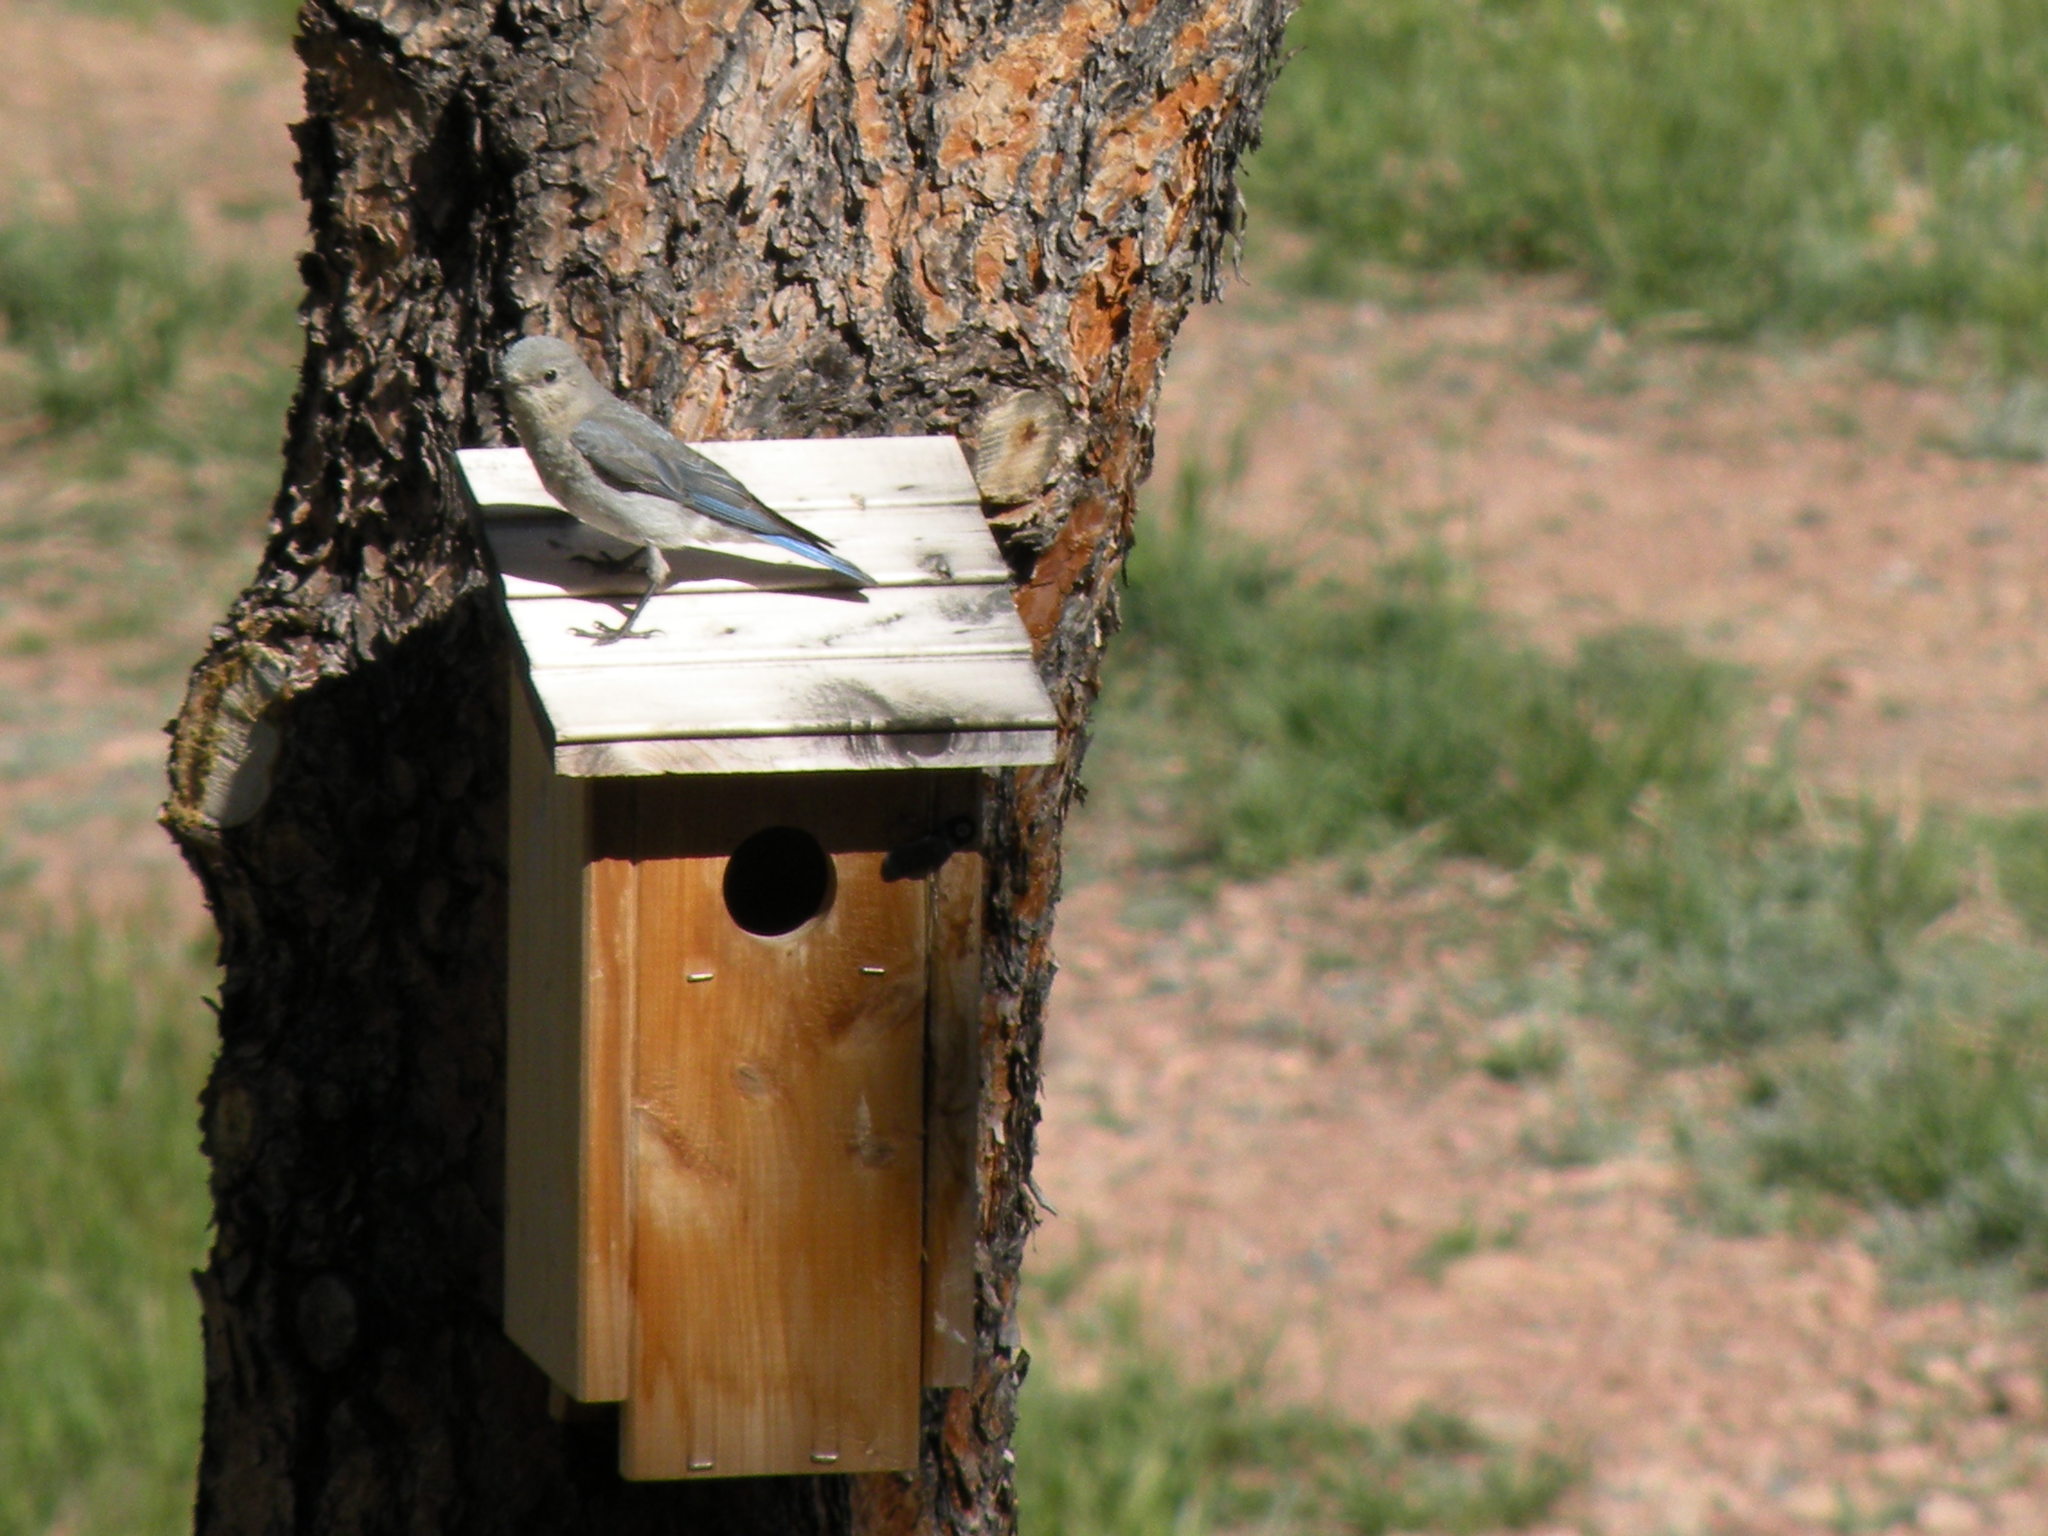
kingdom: Animalia
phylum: Chordata
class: Aves
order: Passeriformes
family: Turdidae
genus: Sialia
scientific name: Sialia currucoides
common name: Mountain bluebird
